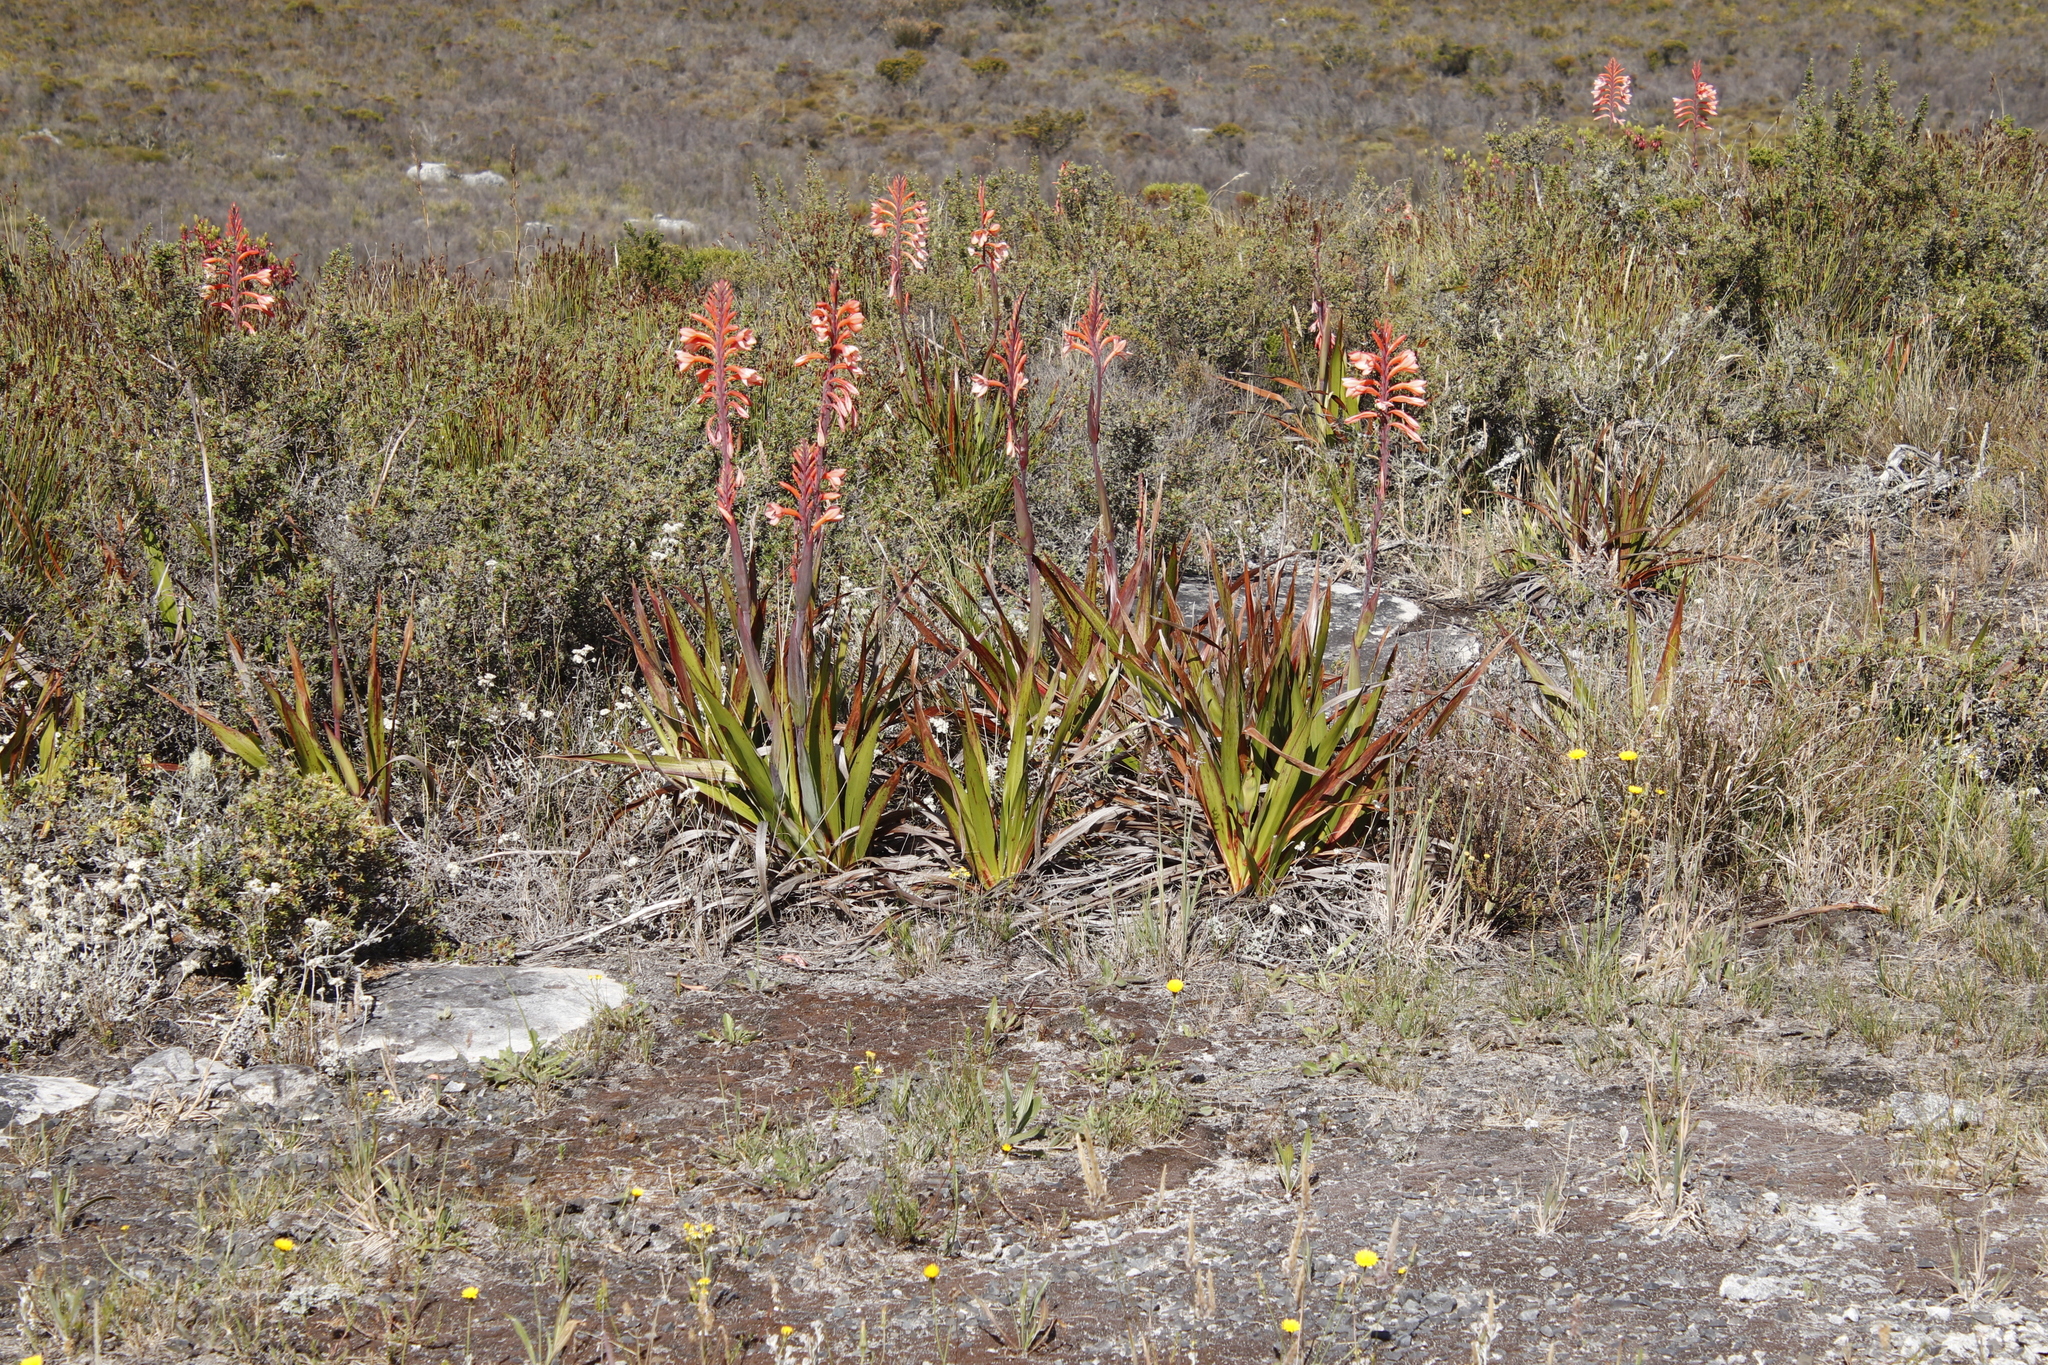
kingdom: Plantae
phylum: Tracheophyta
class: Liliopsida
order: Asparagales
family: Iridaceae
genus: Watsonia
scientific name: Watsonia tabularis
